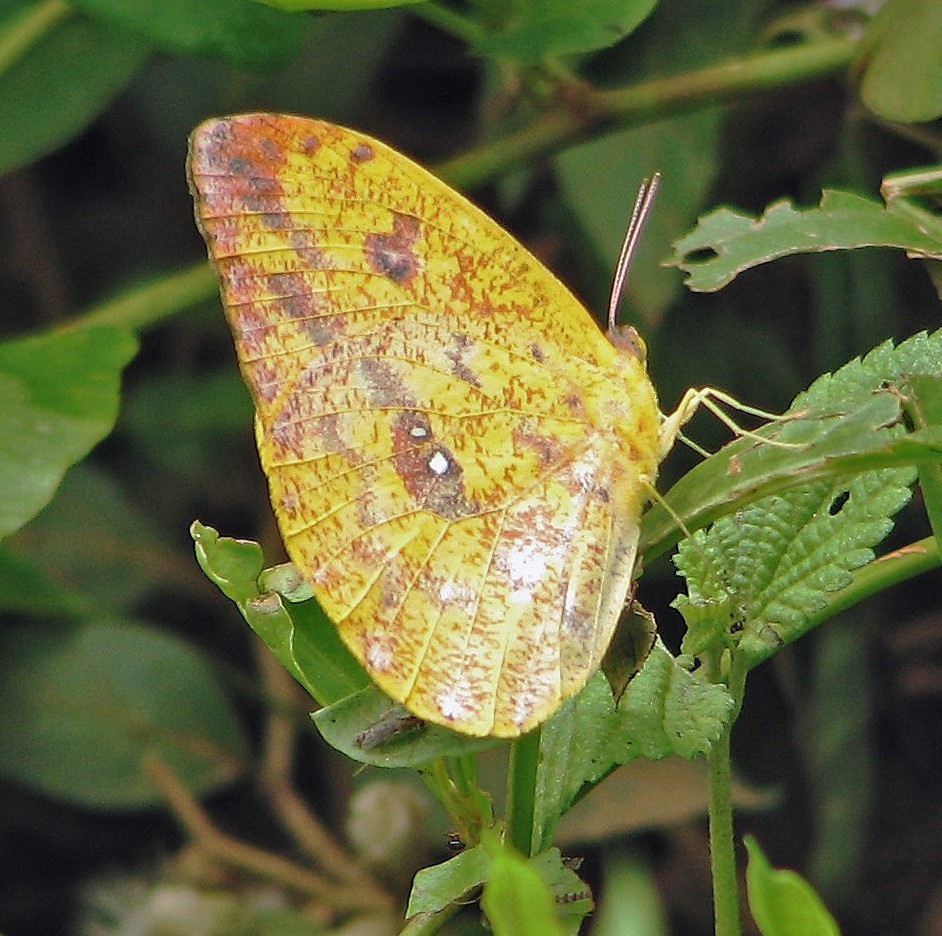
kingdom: Animalia
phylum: Arthropoda
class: Insecta
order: Lepidoptera
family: Pieridae
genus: Phoebis
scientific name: Phoebis argante
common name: Apricot sulphur
